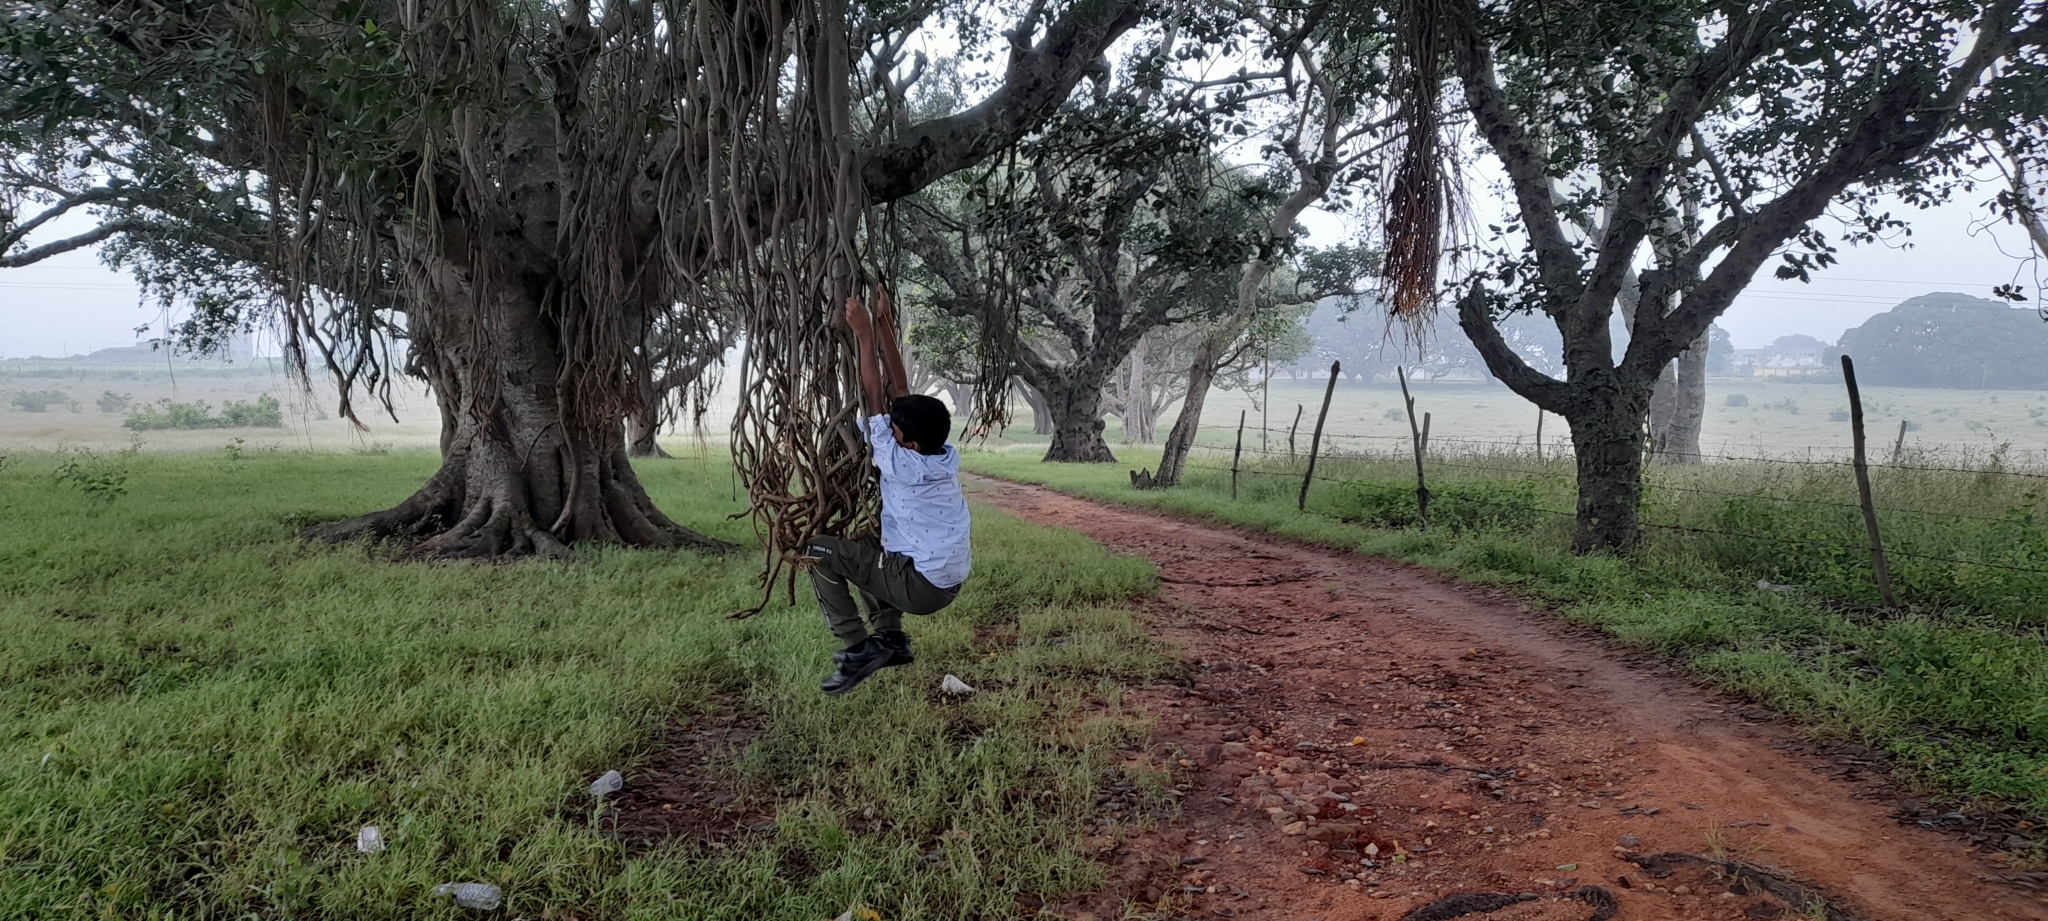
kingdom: Plantae
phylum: Tracheophyta
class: Magnoliopsida
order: Rosales
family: Moraceae
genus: Ficus
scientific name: Ficus benghalensis
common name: Indian banyan
